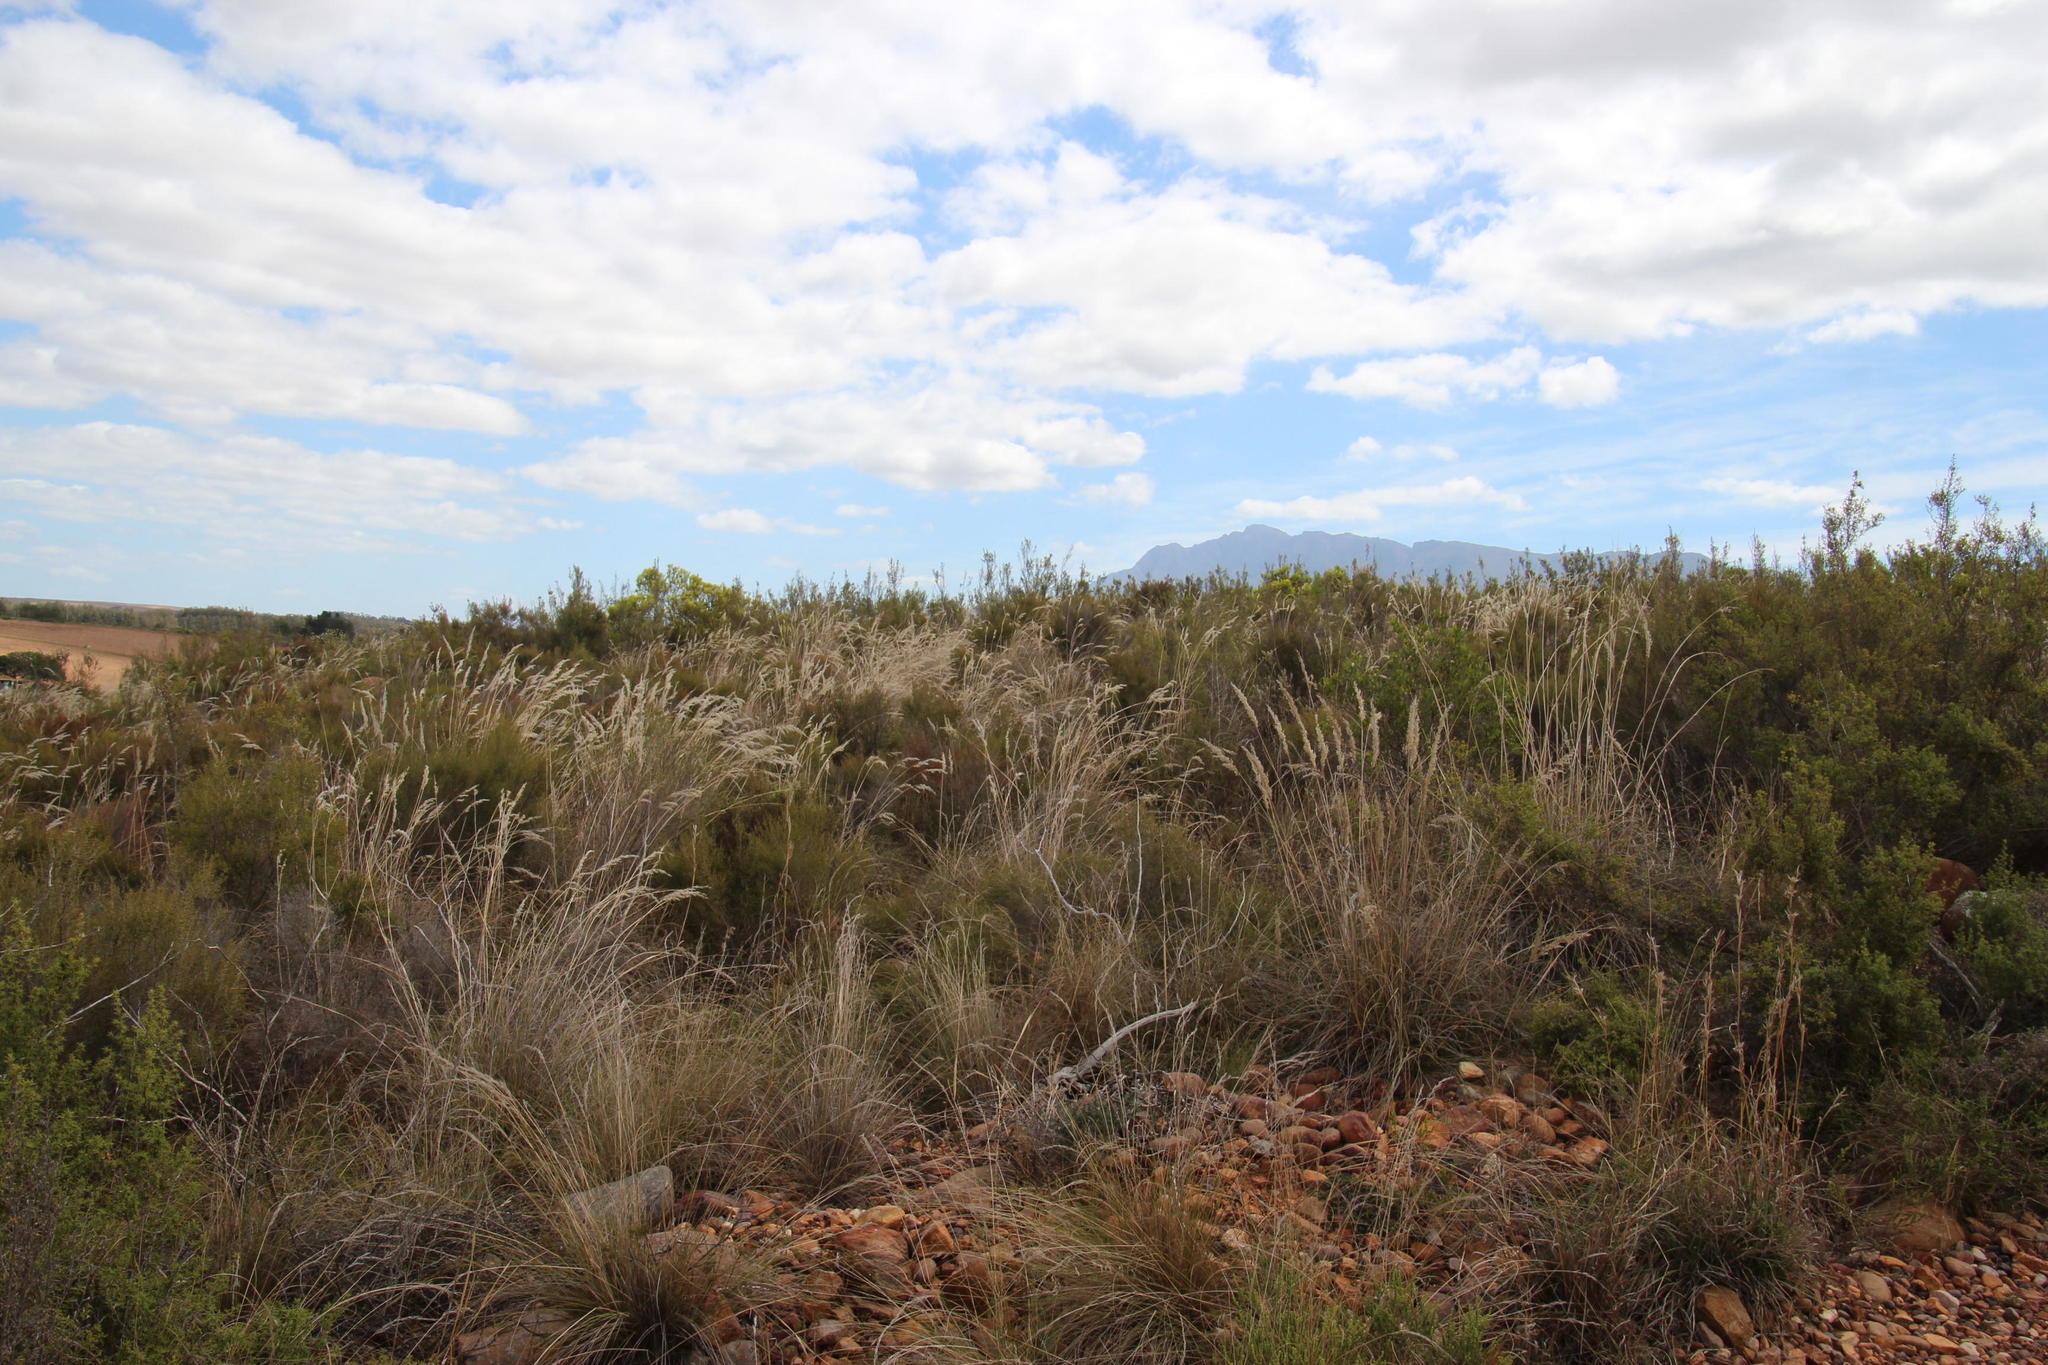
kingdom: Plantae
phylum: Tracheophyta
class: Liliopsida
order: Poales
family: Poaceae
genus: Tenaxia
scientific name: Tenaxia stricta
